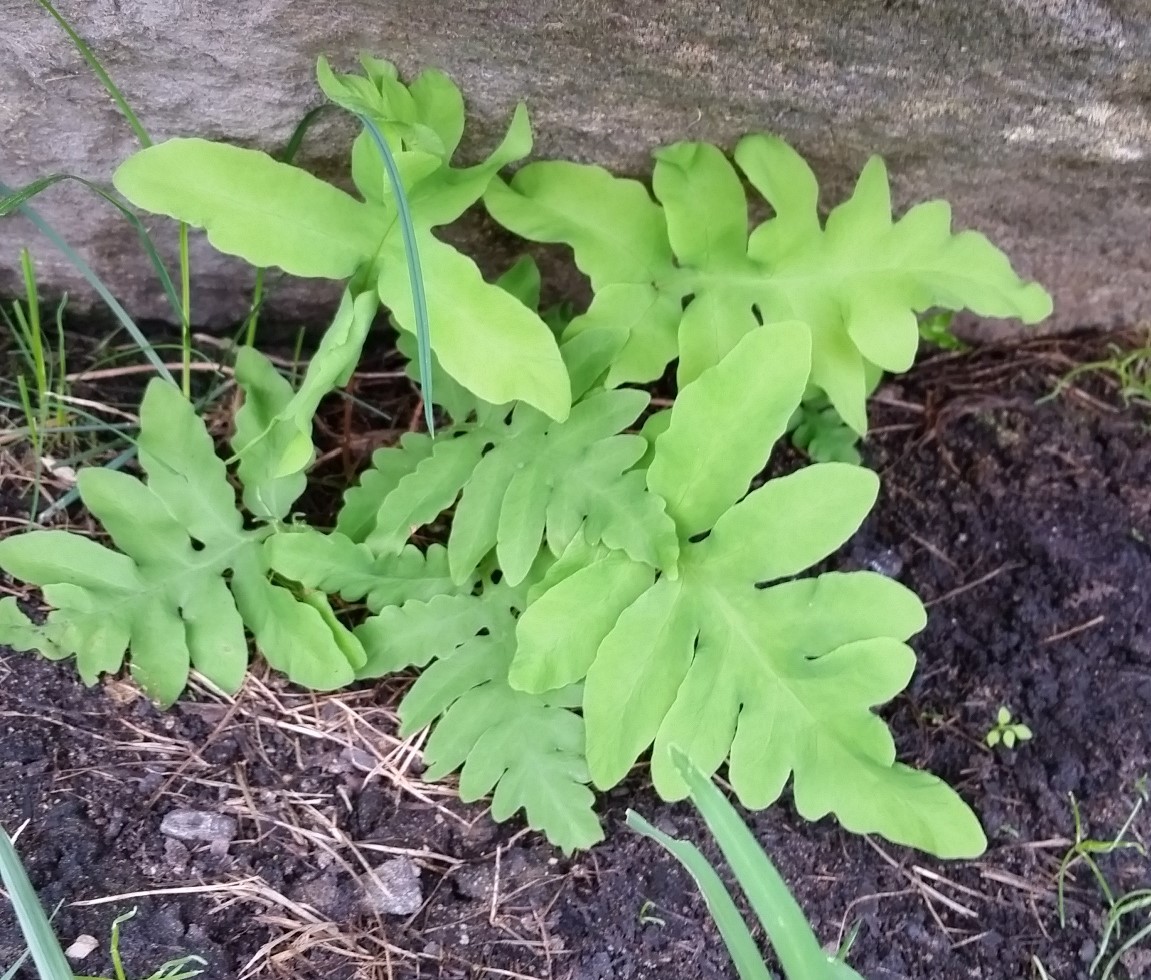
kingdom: Plantae
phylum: Tracheophyta
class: Polypodiopsida
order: Polypodiales
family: Onocleaceae
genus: Onoclea
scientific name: Onoclea sensibilis
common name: Sensitive fern
